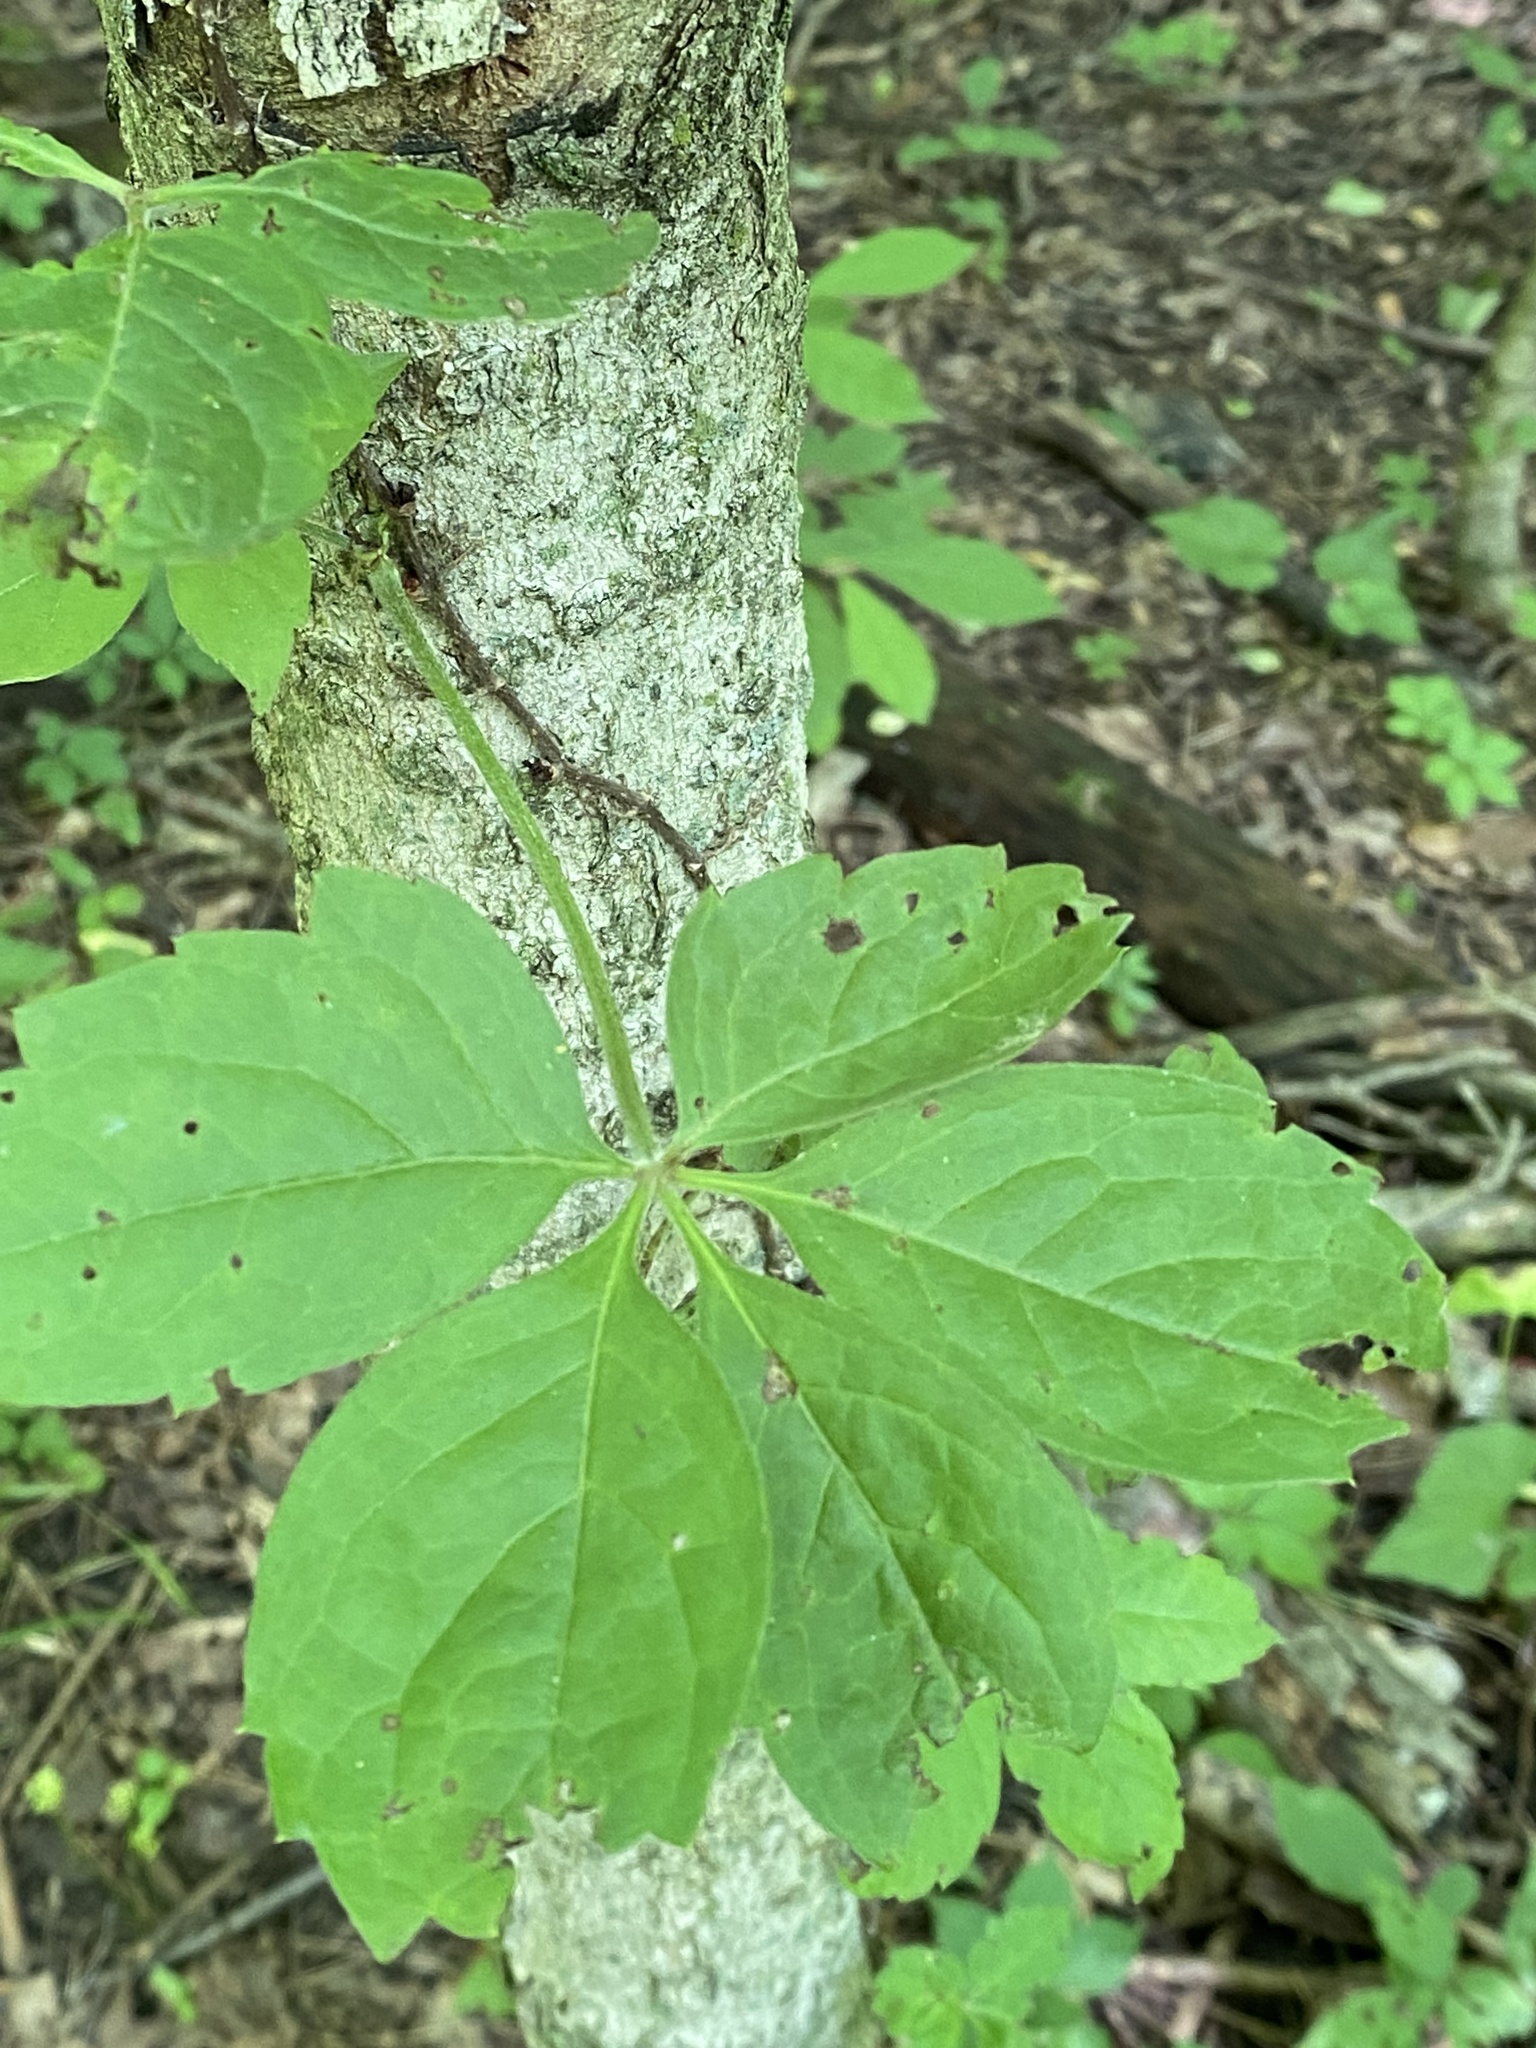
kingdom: Plantae
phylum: Tracheophyta
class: Magnoliopsida
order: Vitales
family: Vitaceae
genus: Parthenocissus
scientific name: Parthenocissus quinquefolia
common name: Virginia-creeper
